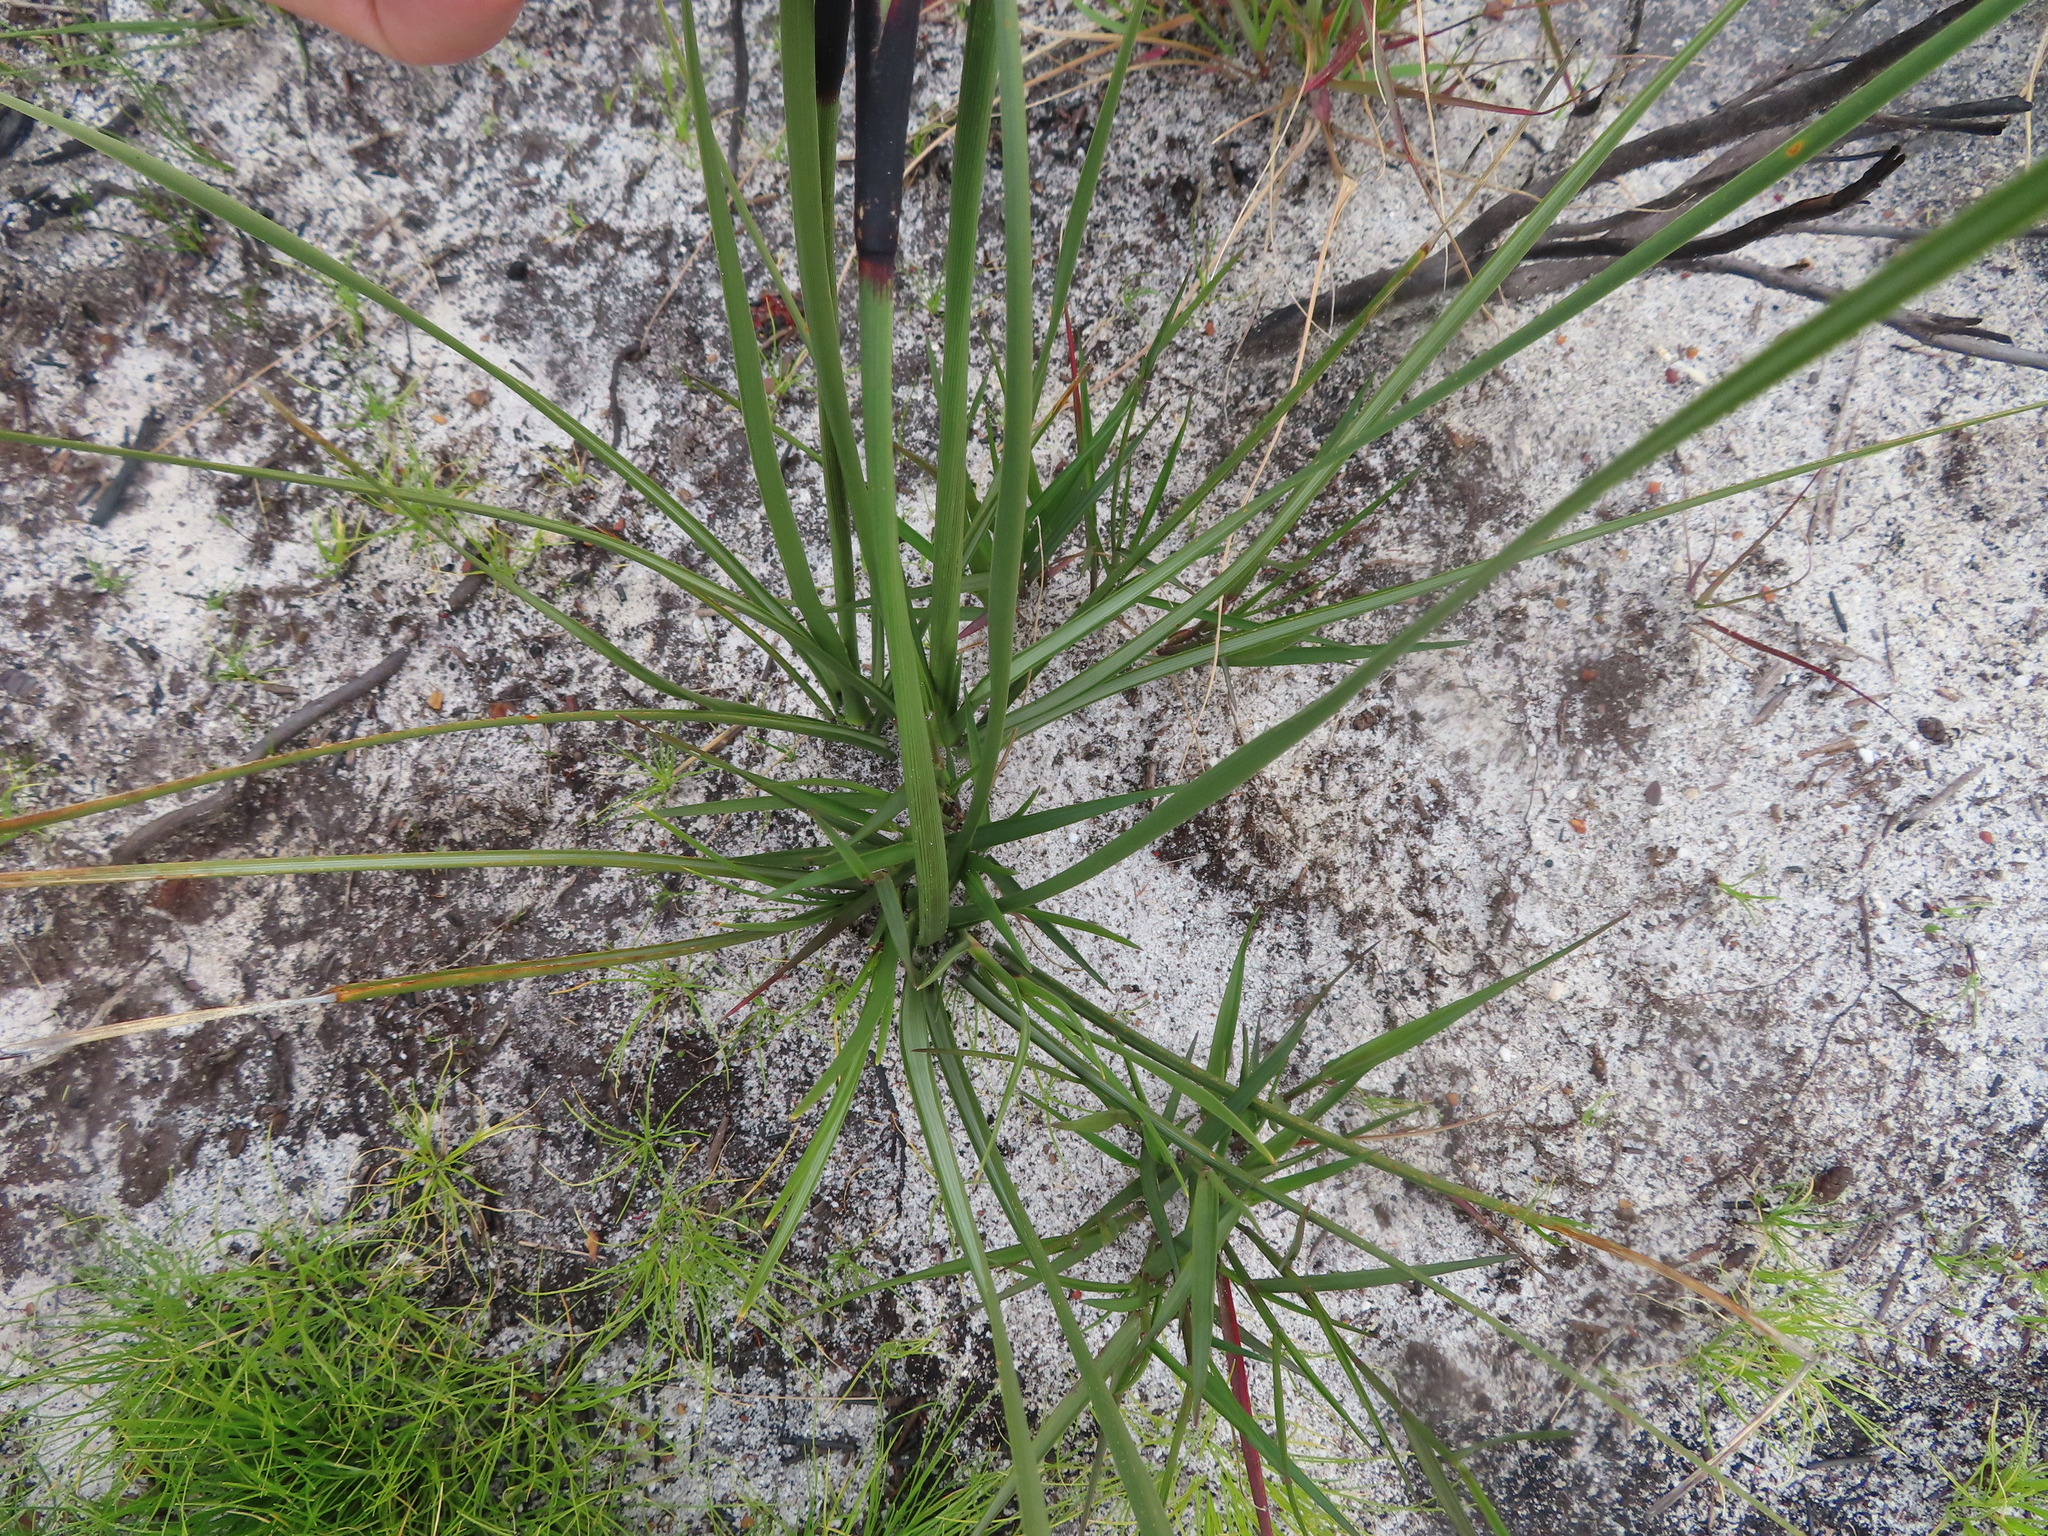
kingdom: Plantae
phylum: Tracheophyta
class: Liliopsida
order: Poales
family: Cyperaceae
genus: Cyathocoma
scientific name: Cyathocoma hexandra
